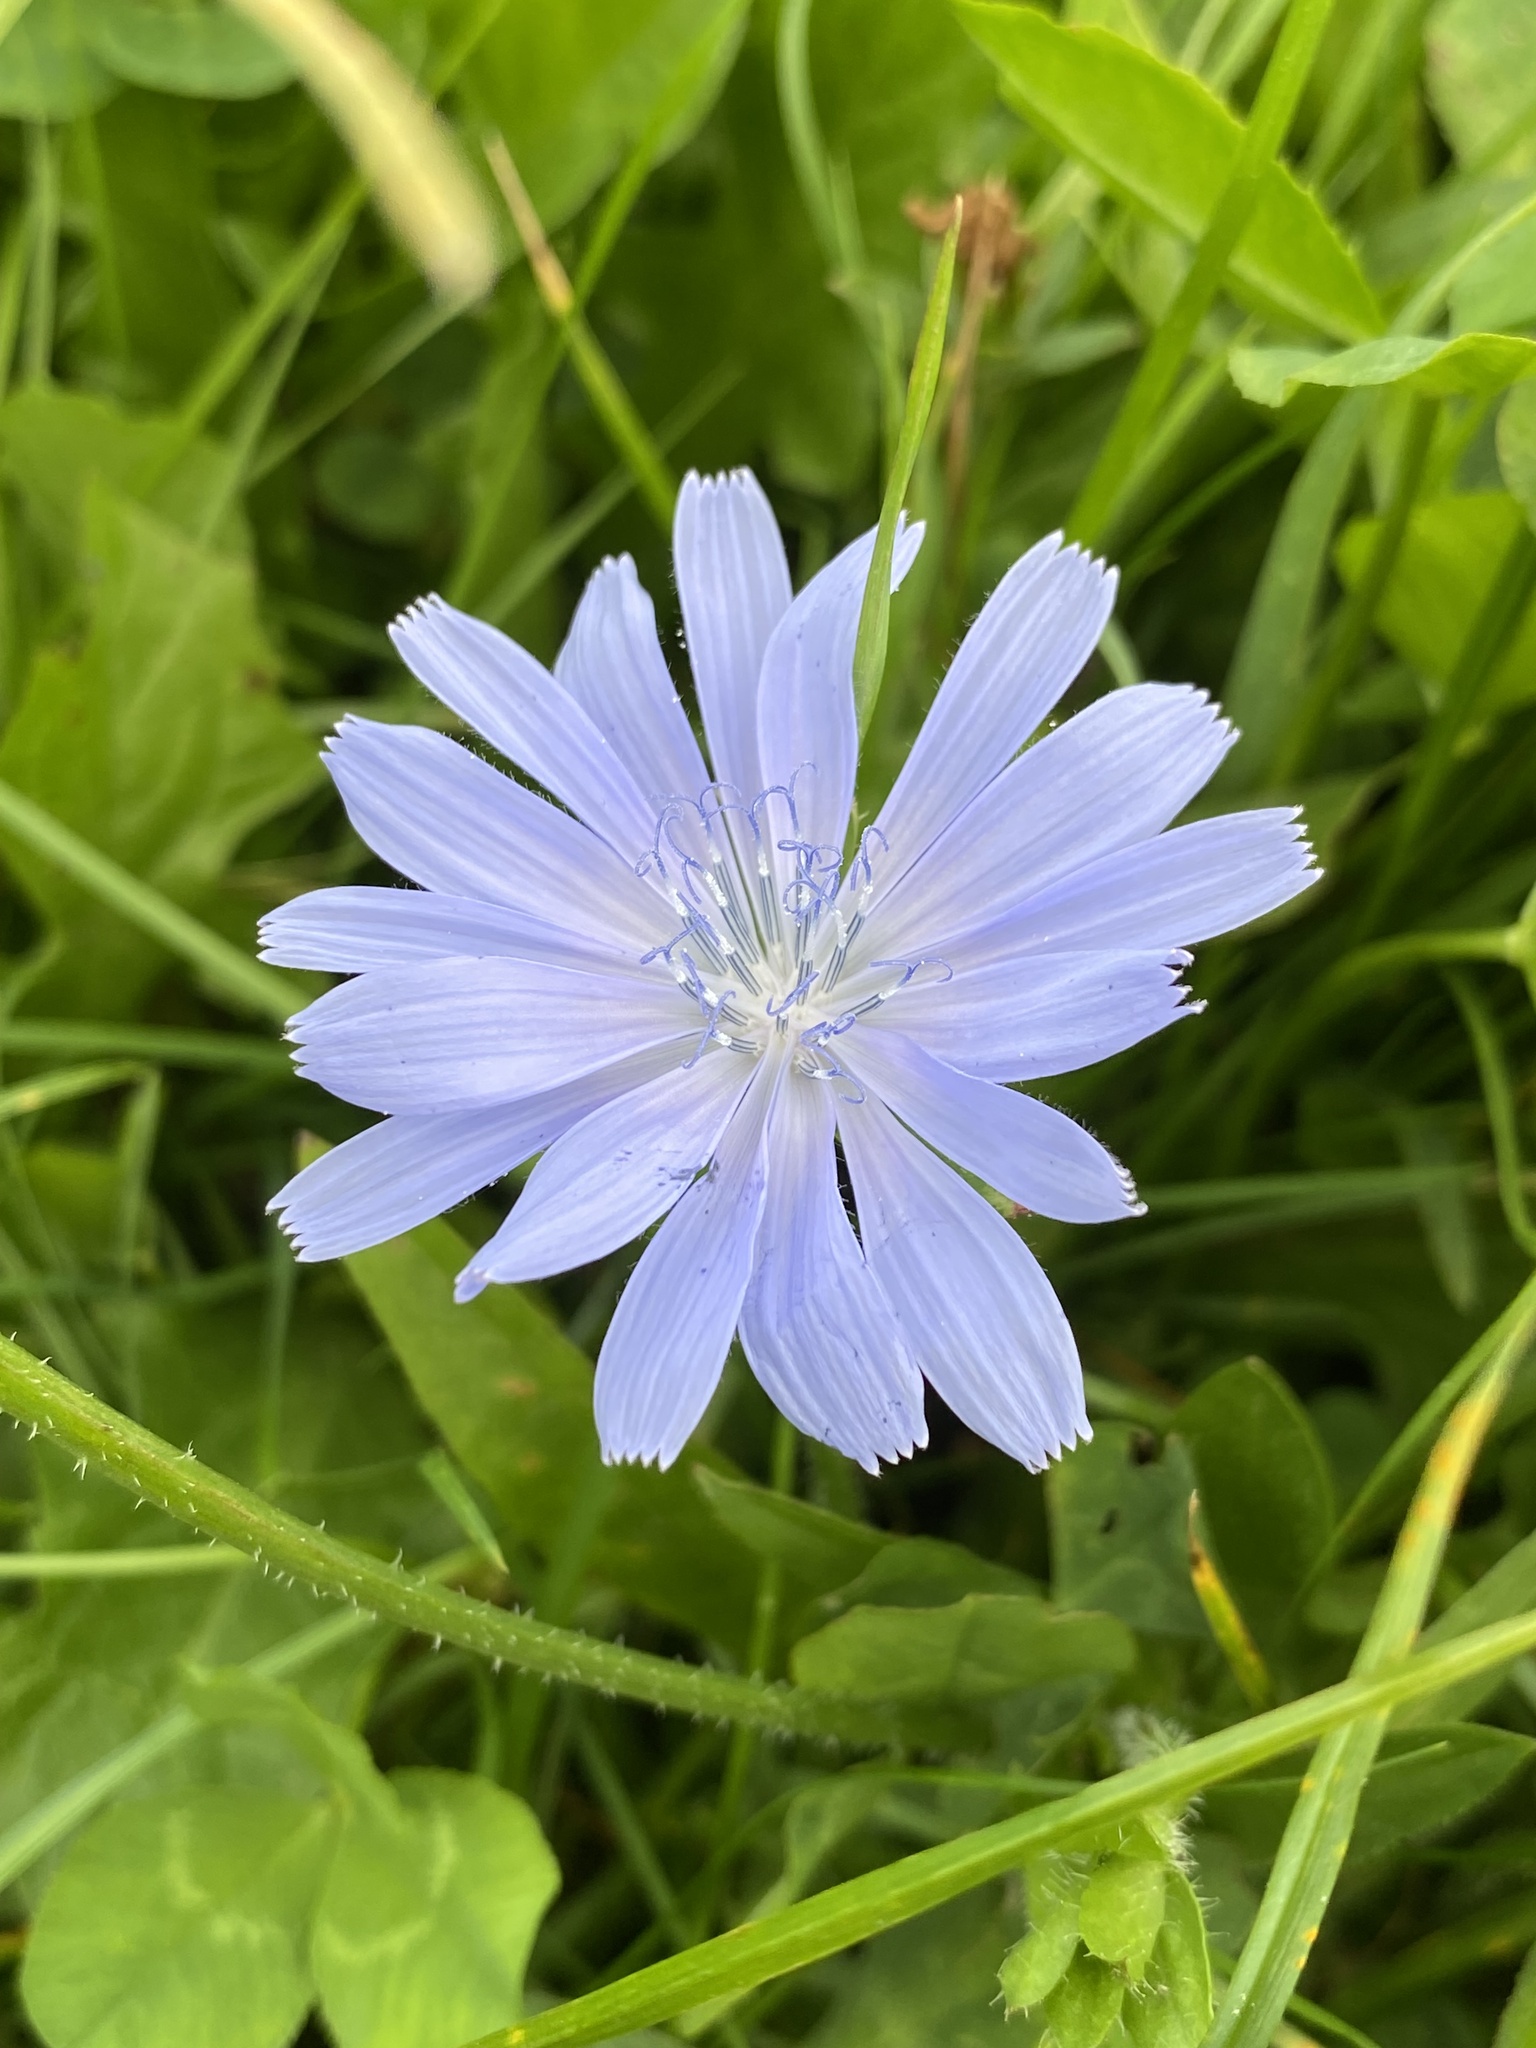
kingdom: Plantae
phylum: Tracheophyta
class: Magnoliopsida
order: Asterales
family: Asteraceae
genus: Cichorium
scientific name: Cichorium intybus
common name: Chicory
